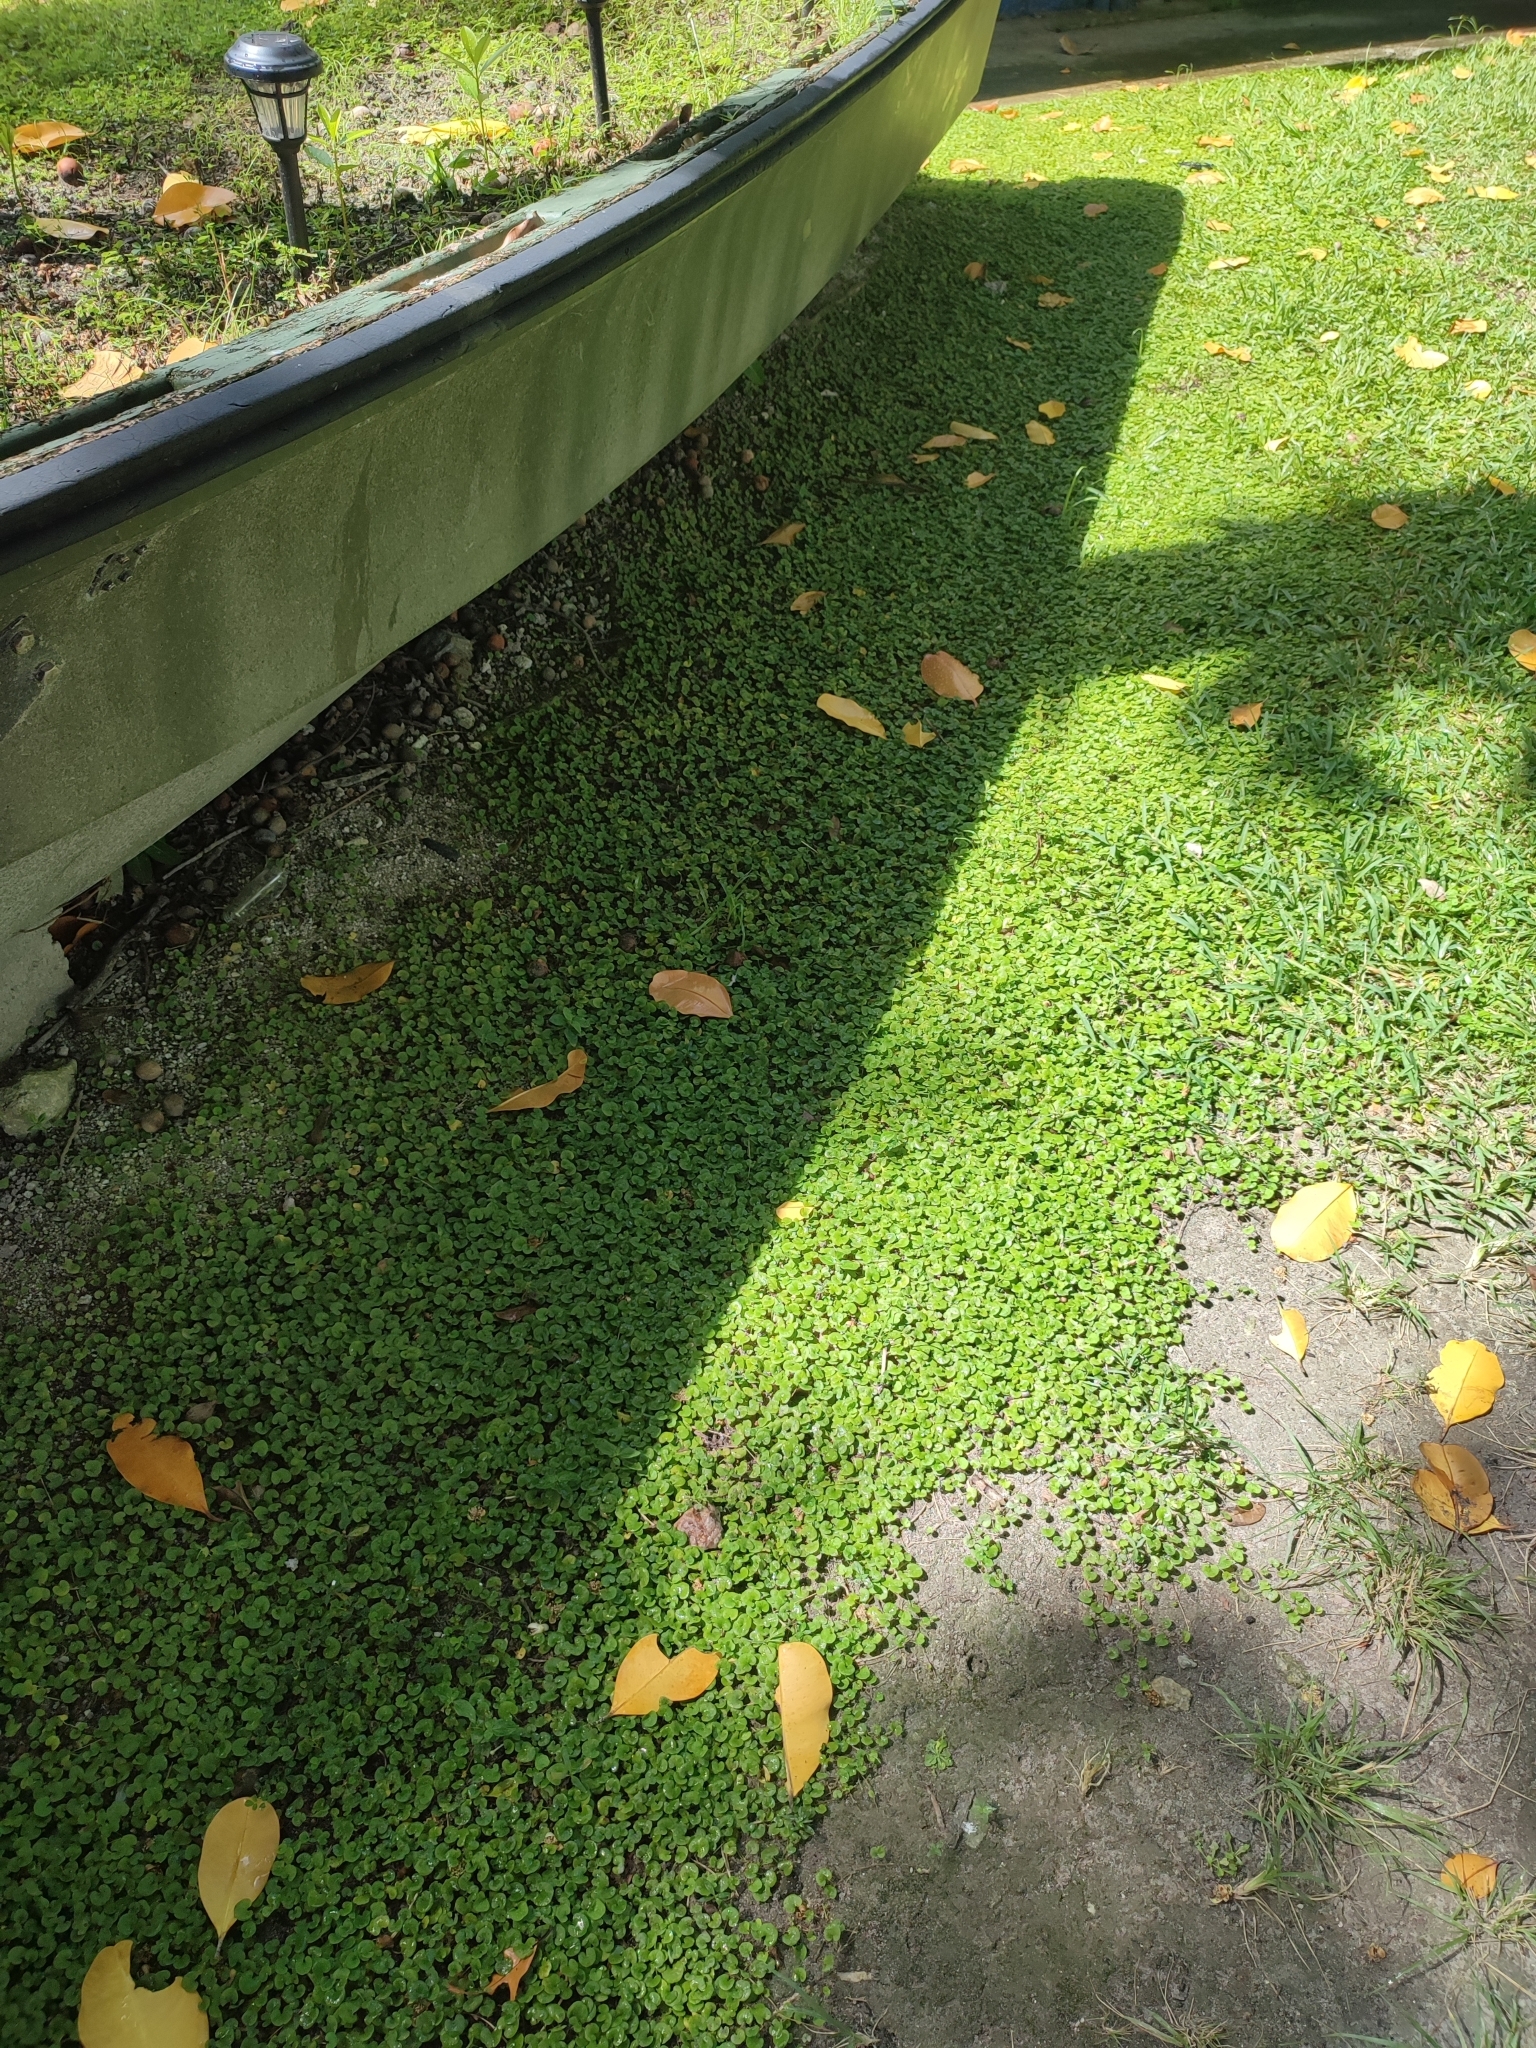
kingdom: Plantae
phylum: Tracheophyta
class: Magnoliopsida
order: Solanales
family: Convolvulaceae
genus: Dichondra
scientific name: Dichondra micrantha
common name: Kidneyweed
